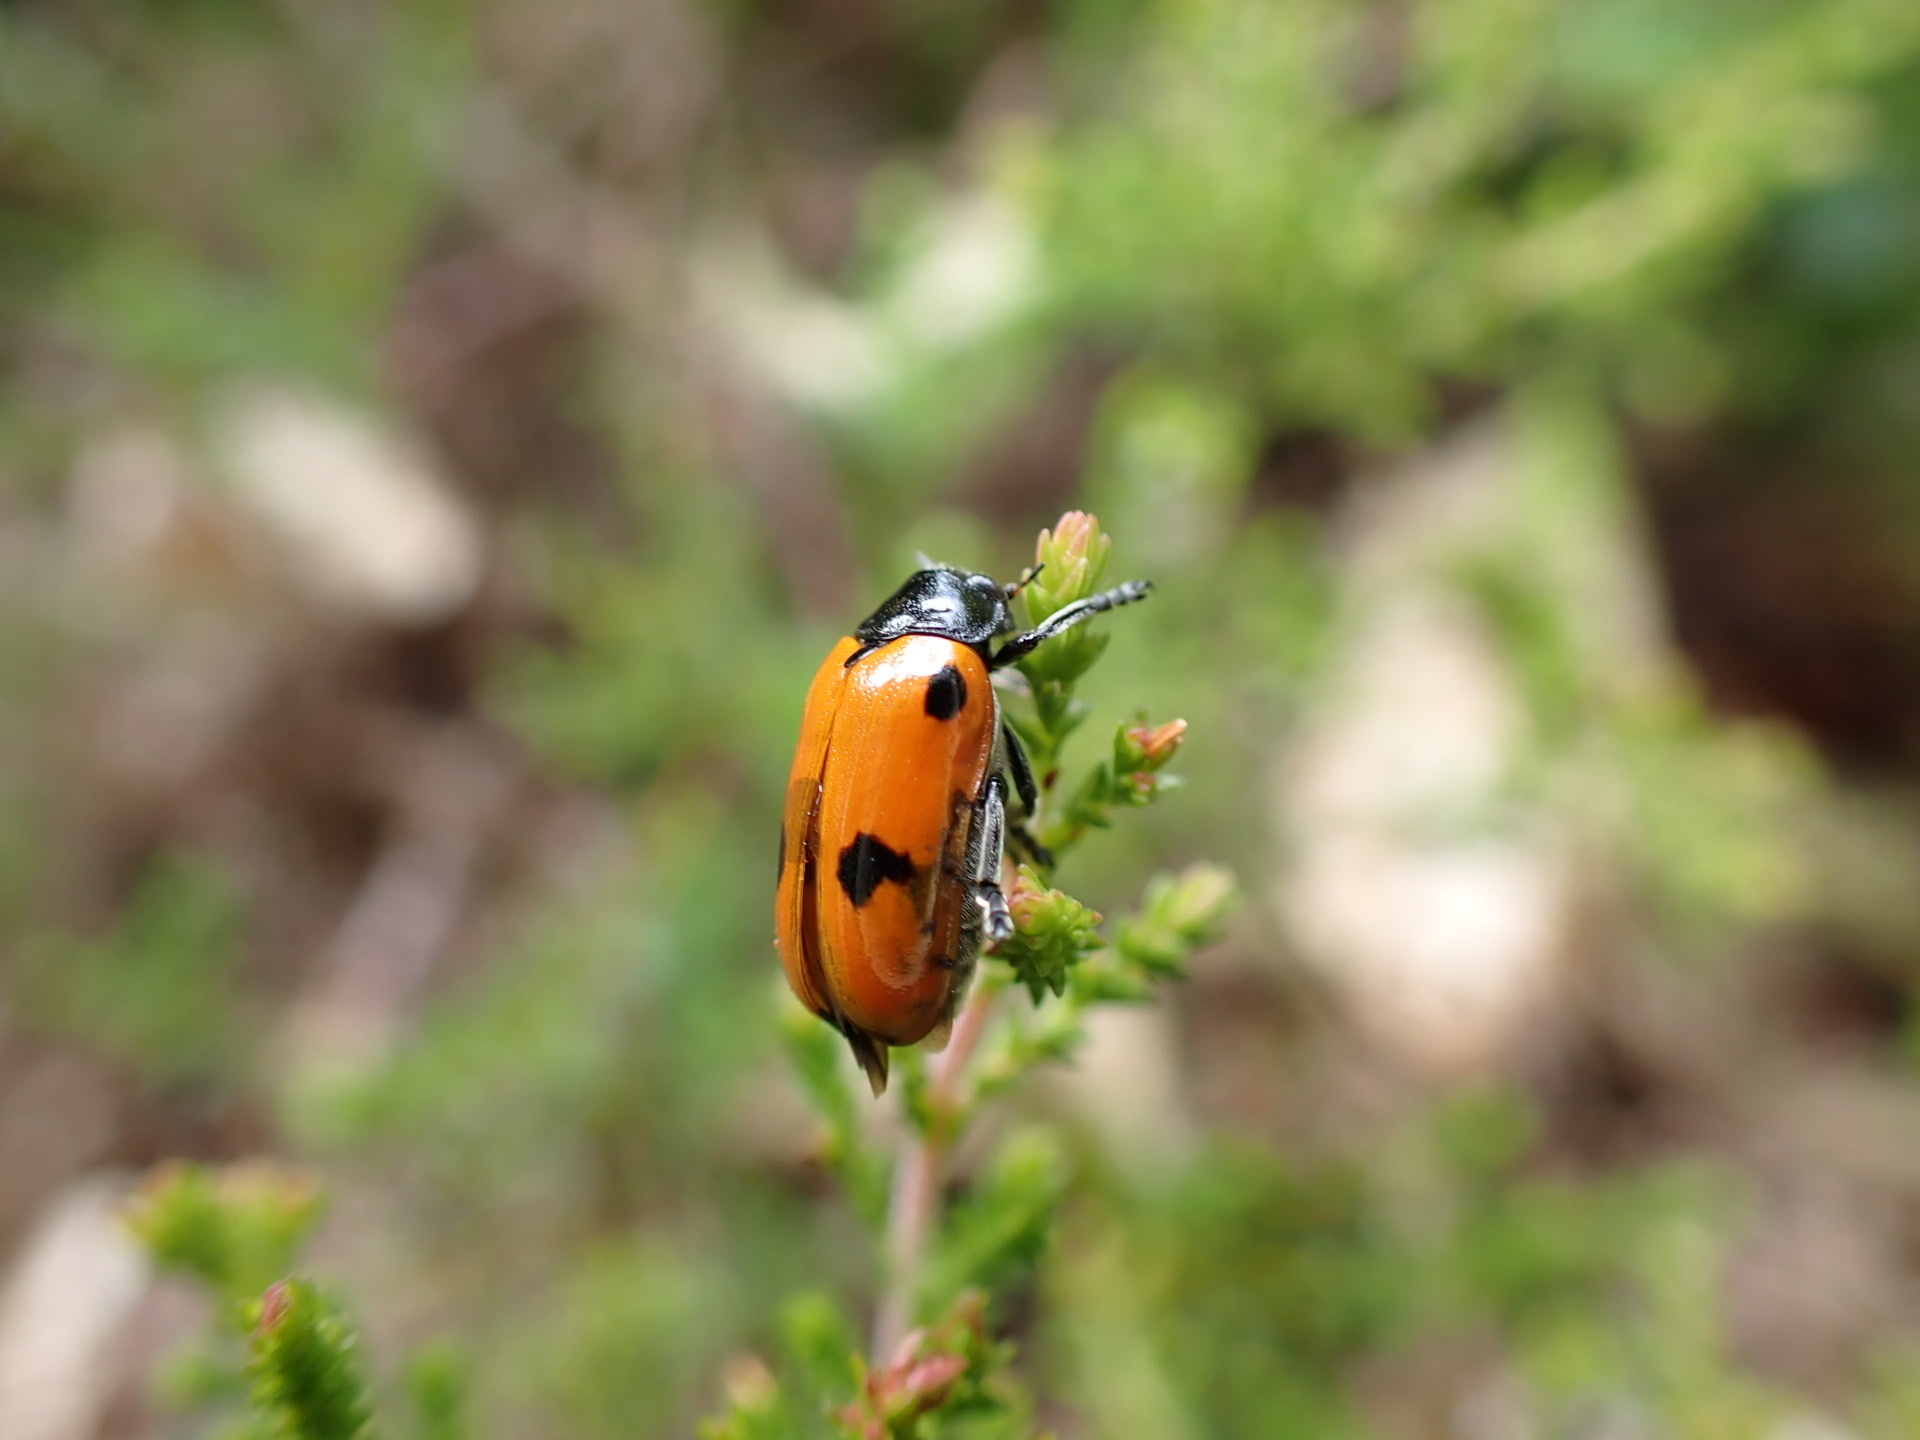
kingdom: Animalia
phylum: Arthropoda
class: Insecta
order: Coleoptera
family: Chrysomelidae
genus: Clytra
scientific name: Clytra quadripunctata
